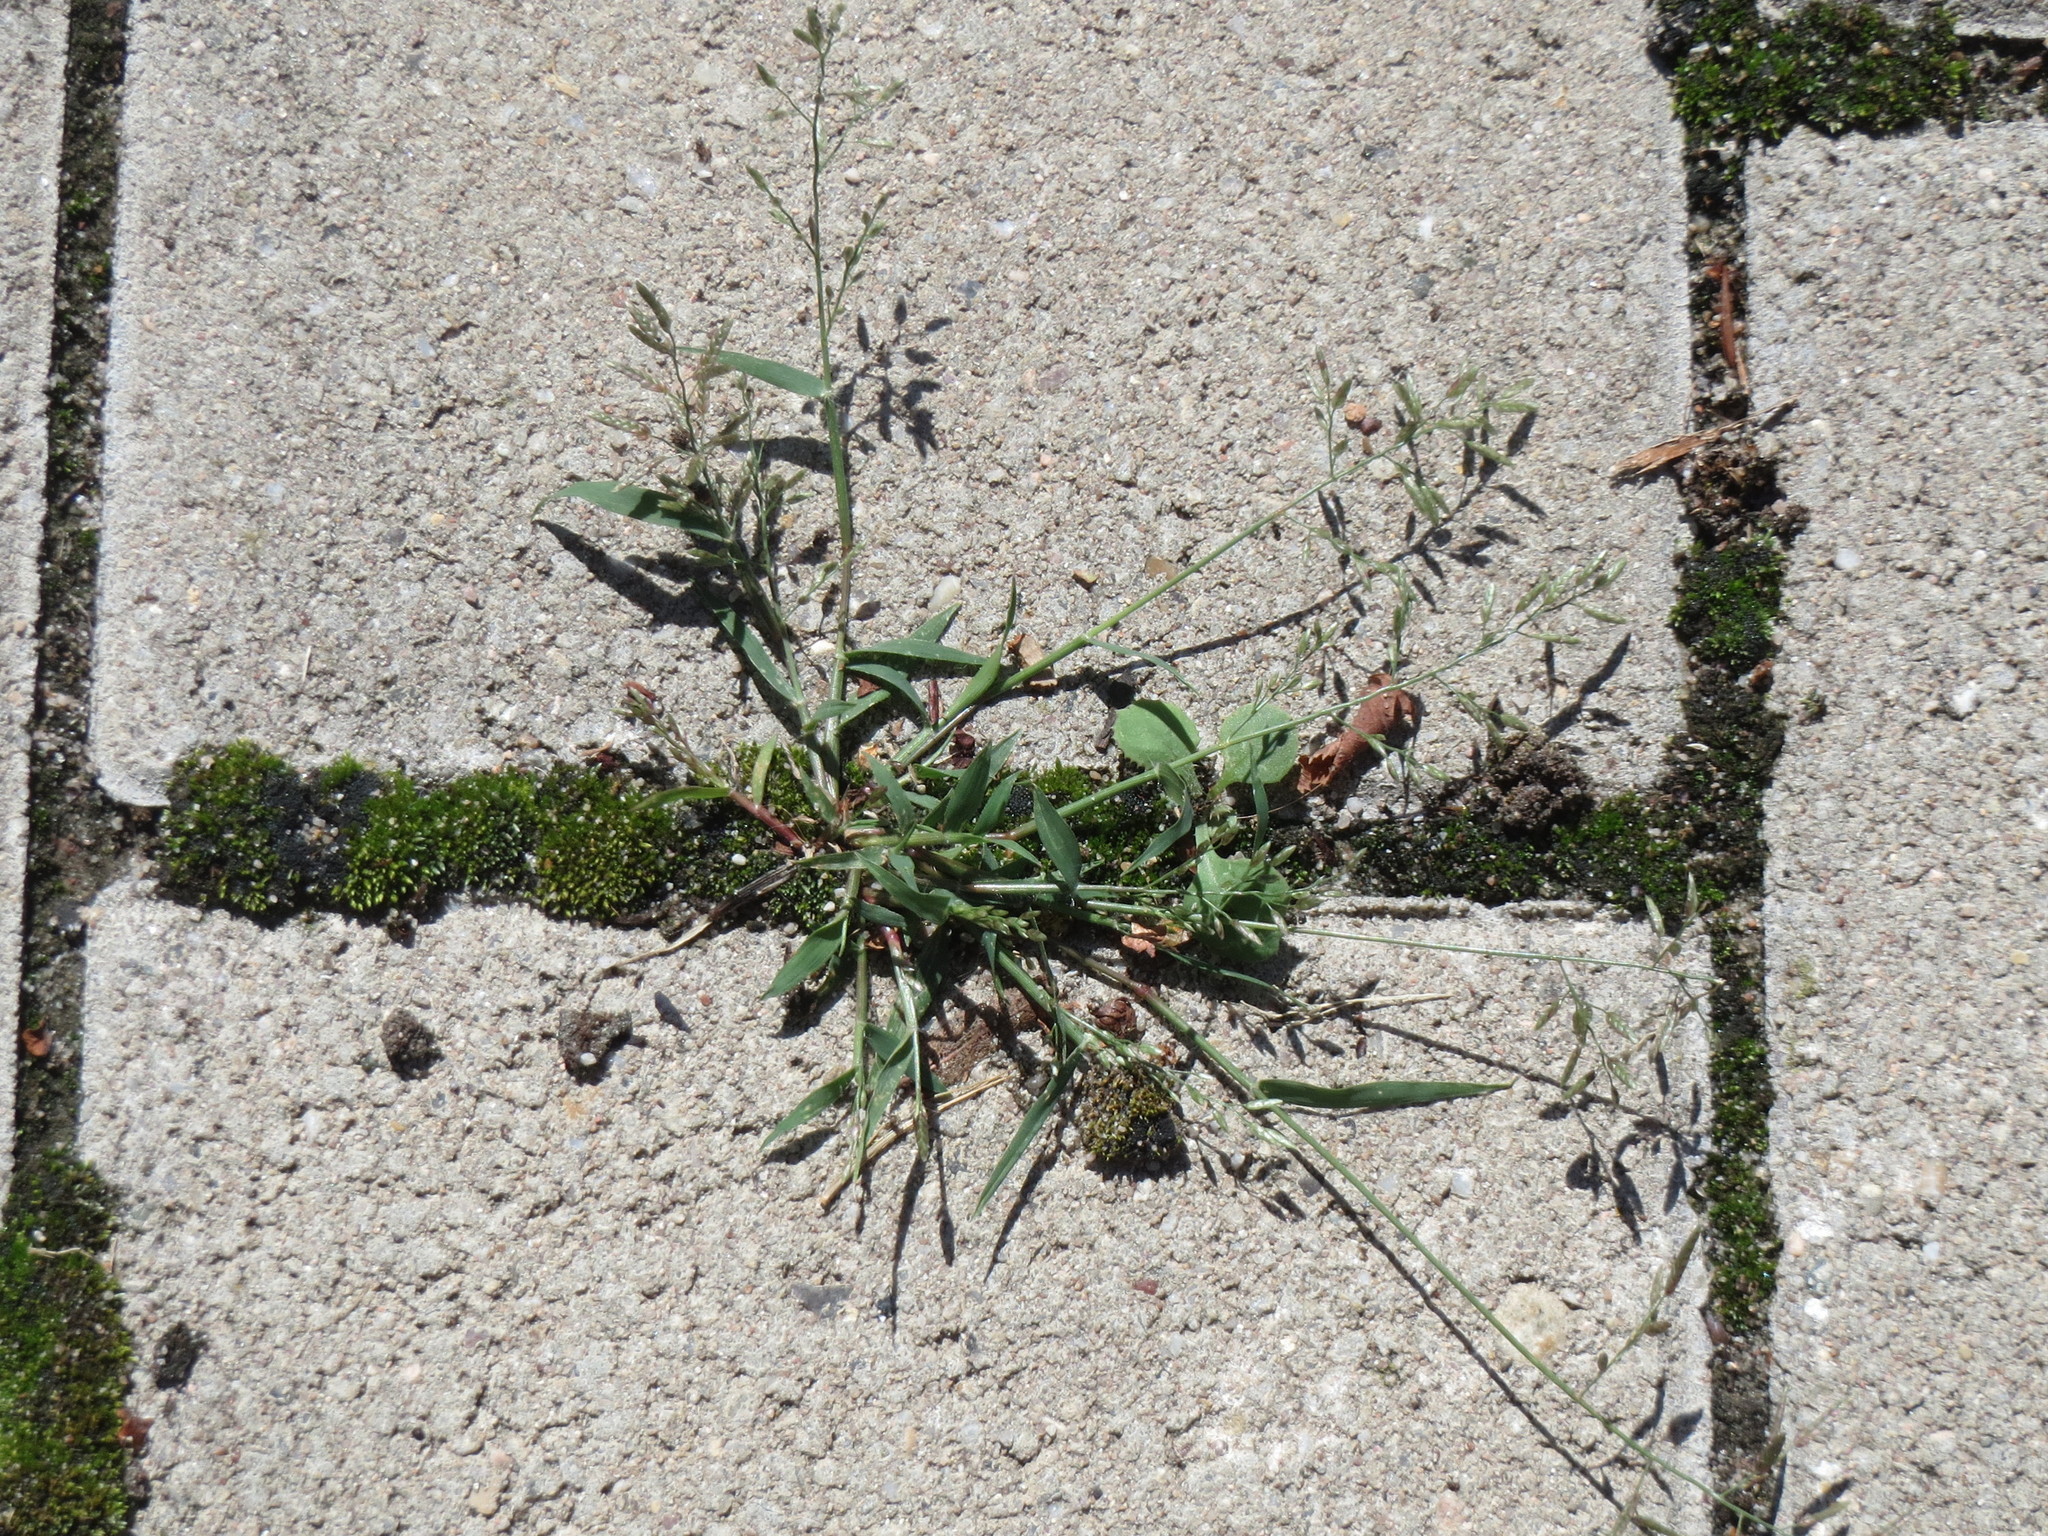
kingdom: Plantae
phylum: Tracheophyta
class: Liliopsida
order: Poales
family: Poaceae
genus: Poa
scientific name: Poa annua
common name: Annual bluegrass
